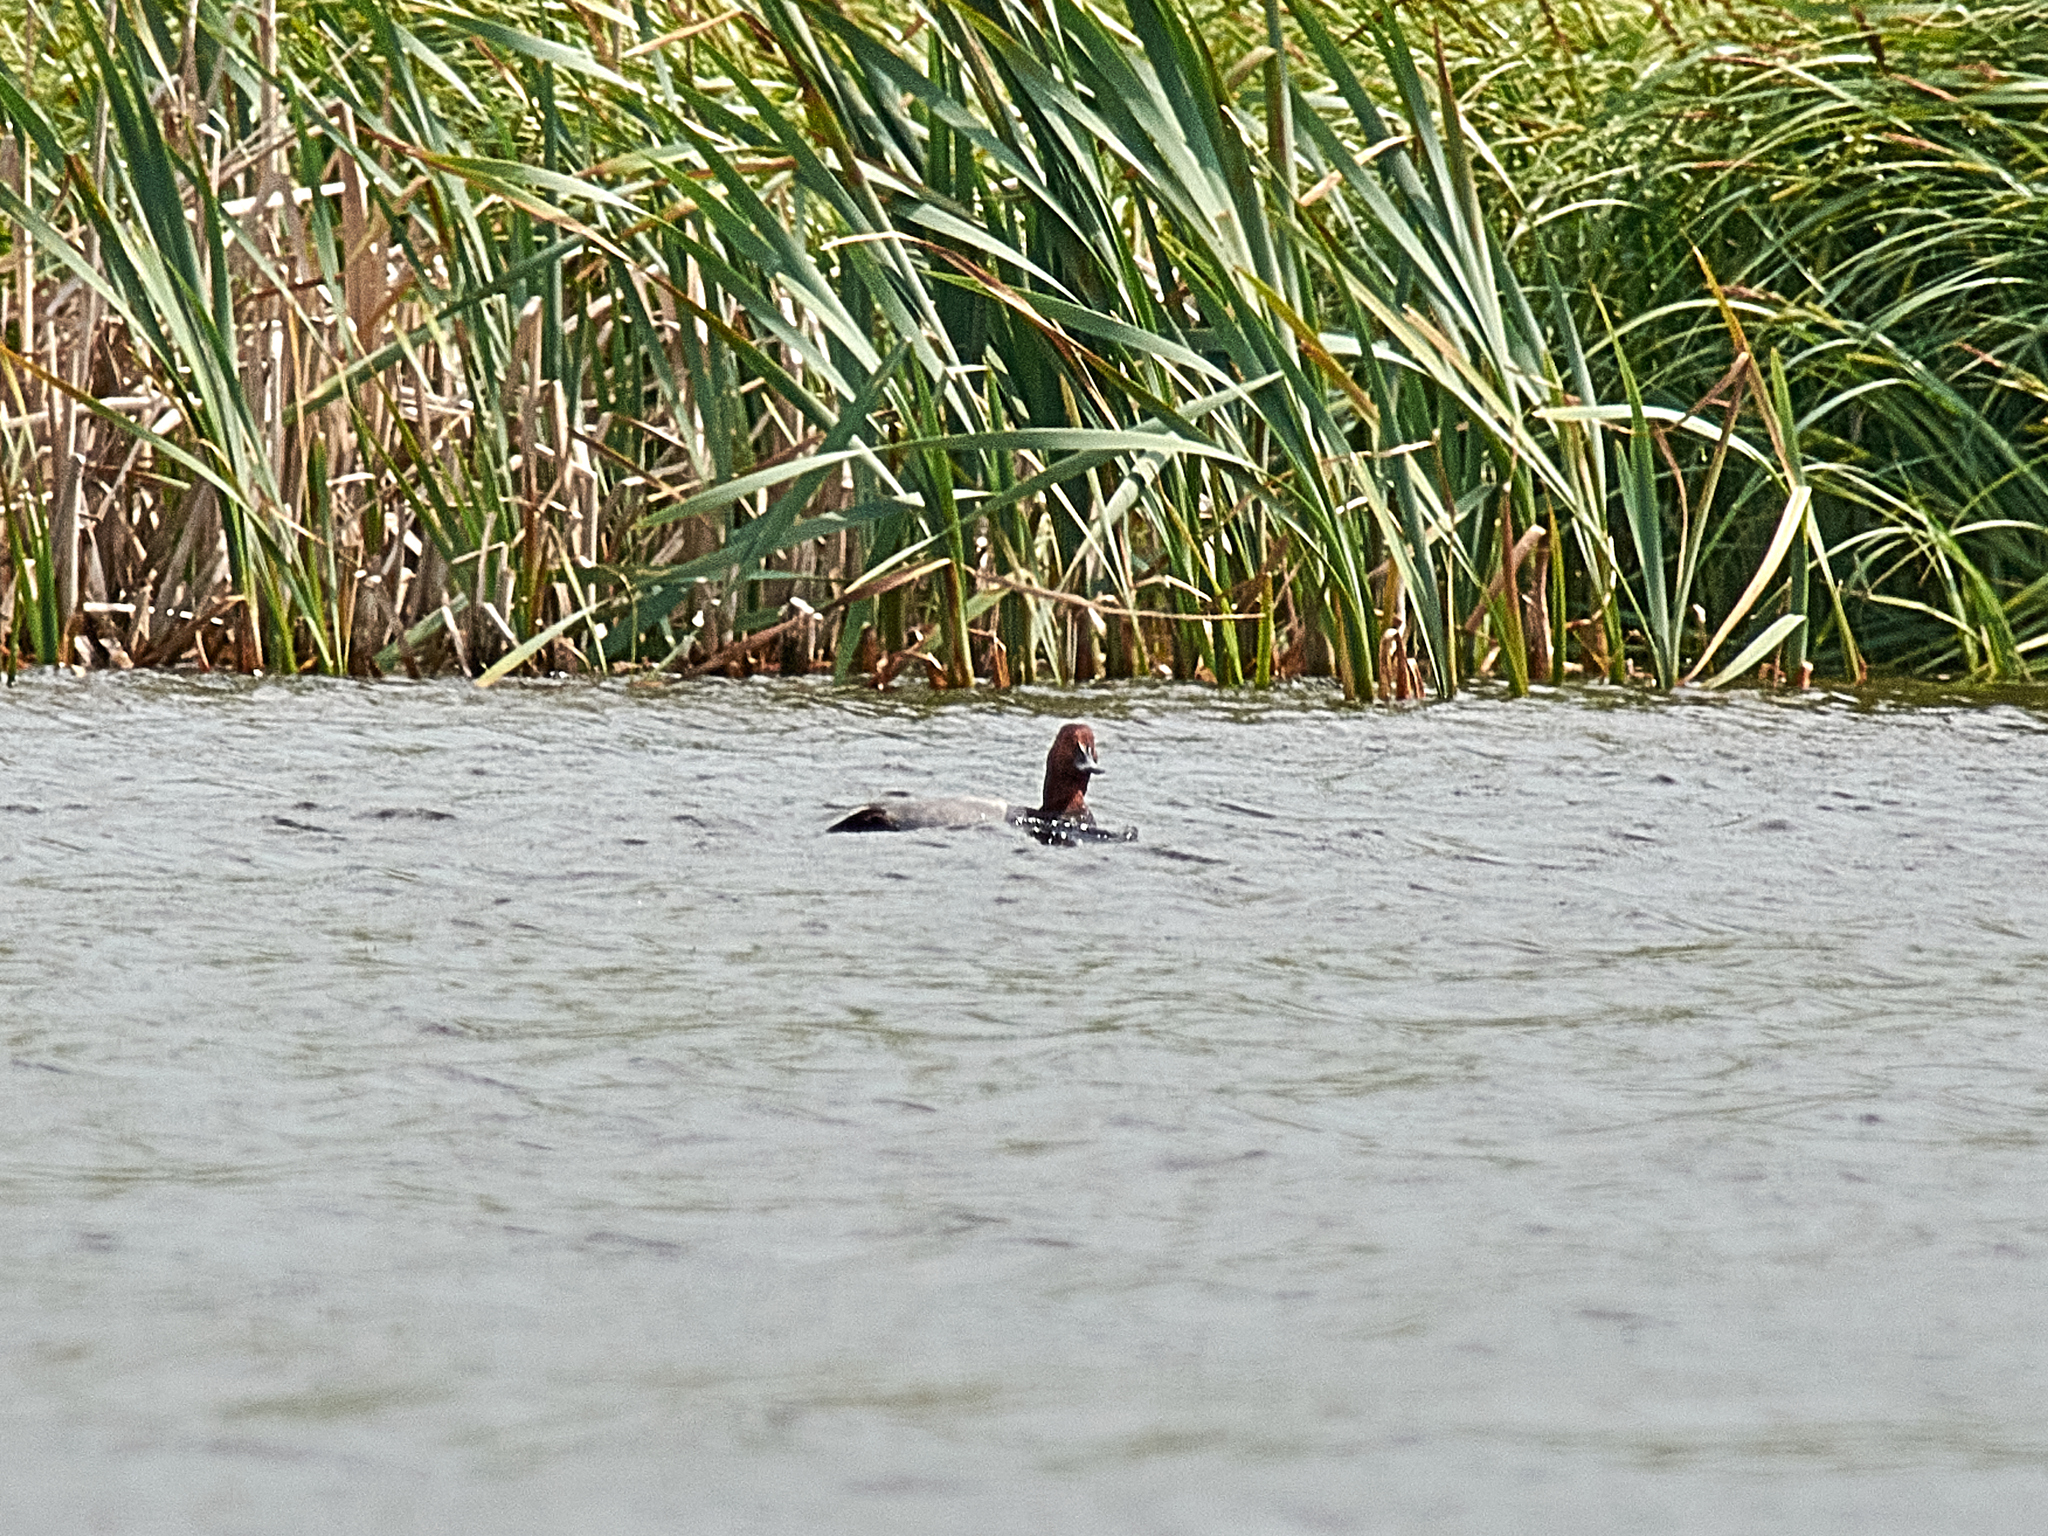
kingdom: Animalia
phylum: Chordata
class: Aves
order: Anseriformes
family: Anatidae
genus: Aythya
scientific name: Aythya ferina
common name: Common pochard
